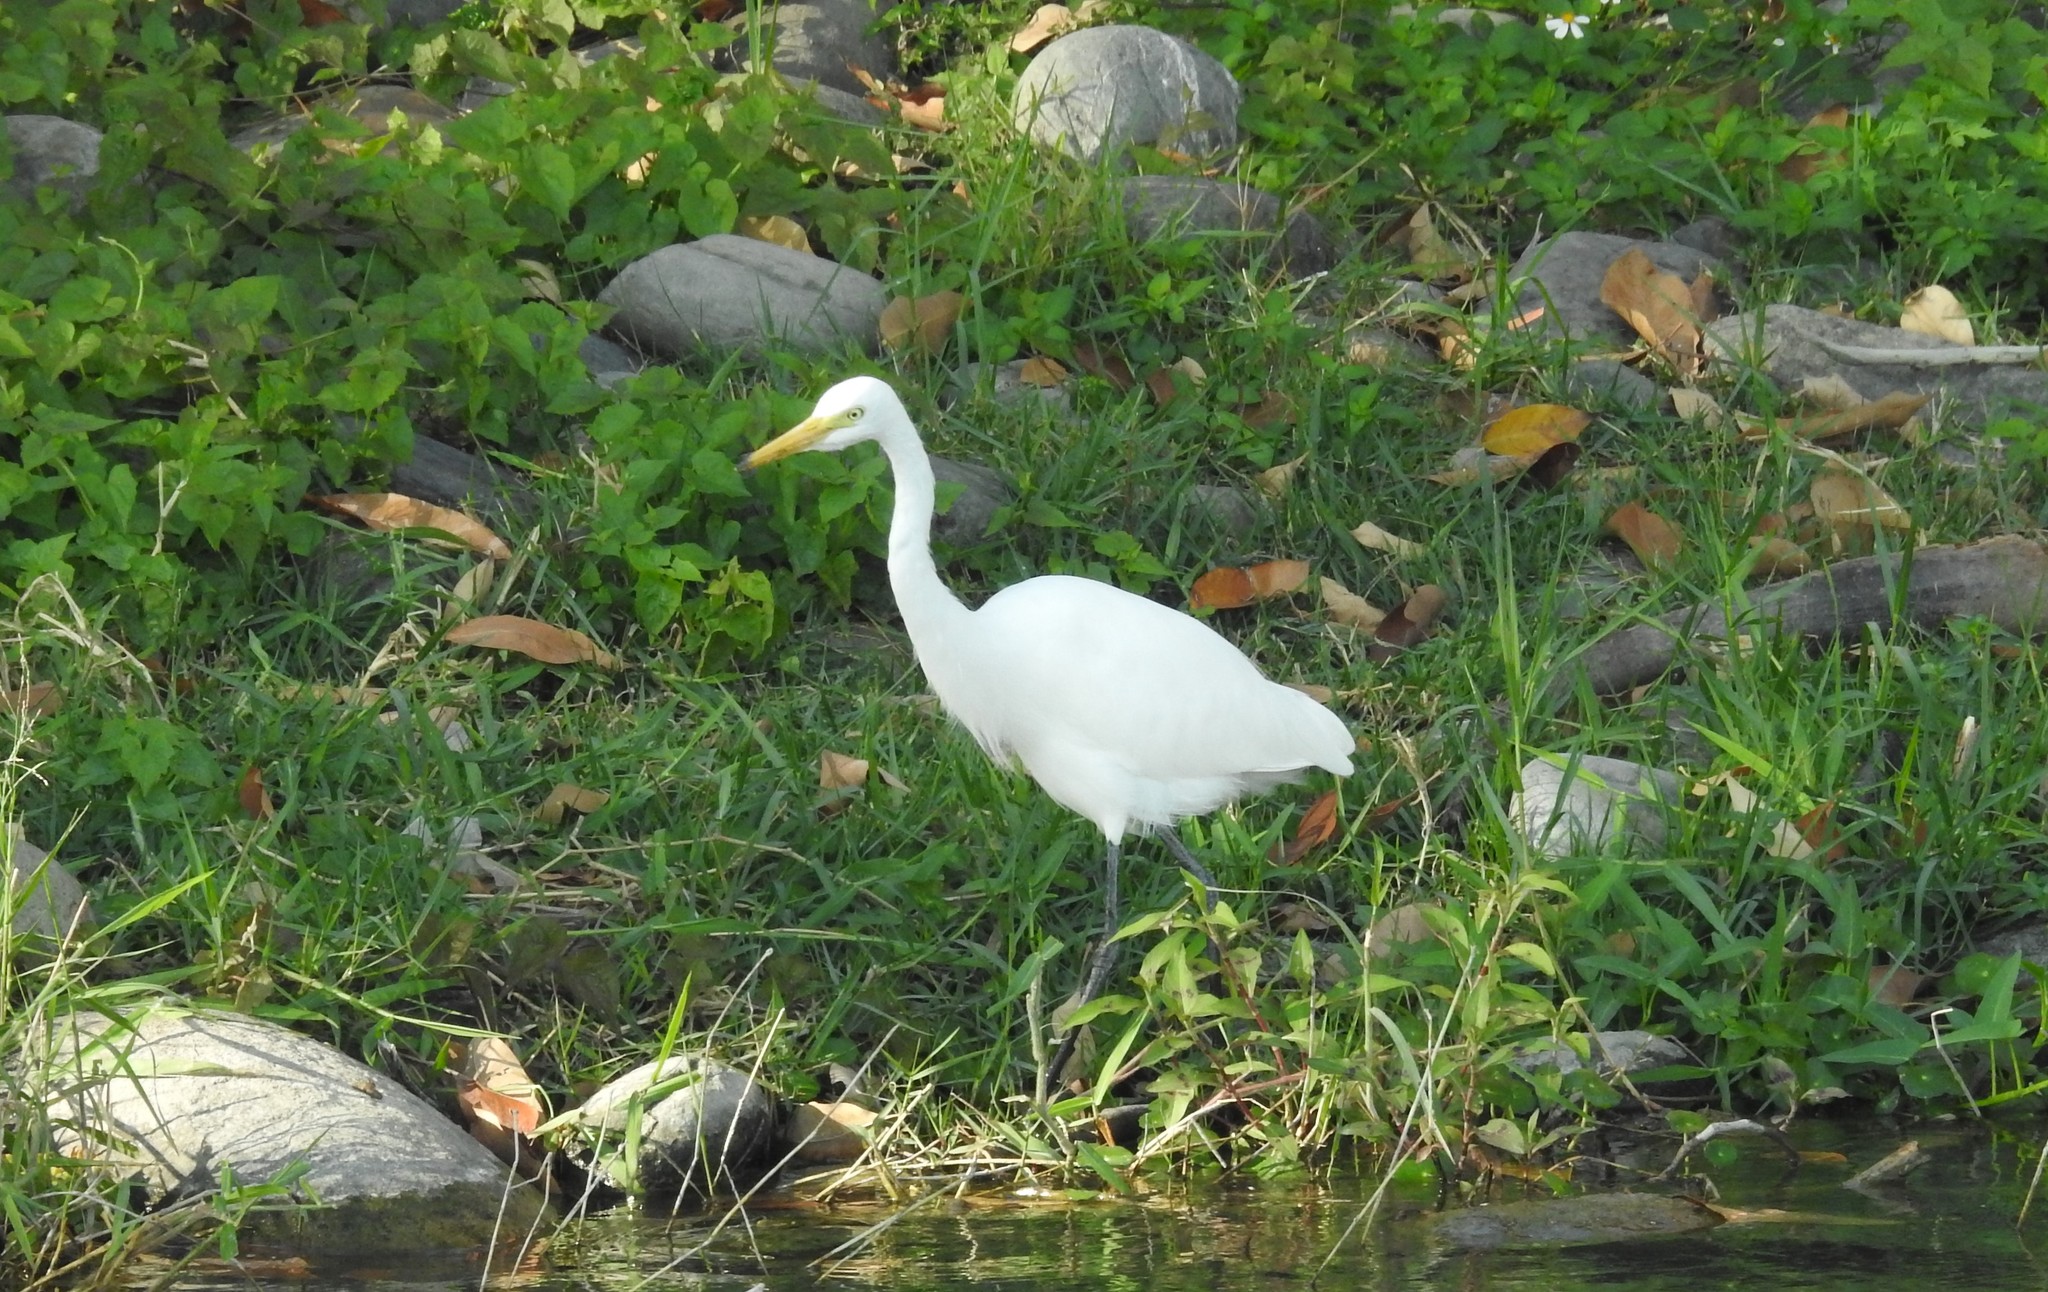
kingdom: Animalia
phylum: Chordata
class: Aves
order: Pelecaniformes
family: Ardeidae
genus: Egretta
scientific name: Egretta intermedia
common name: Intermediate egret
